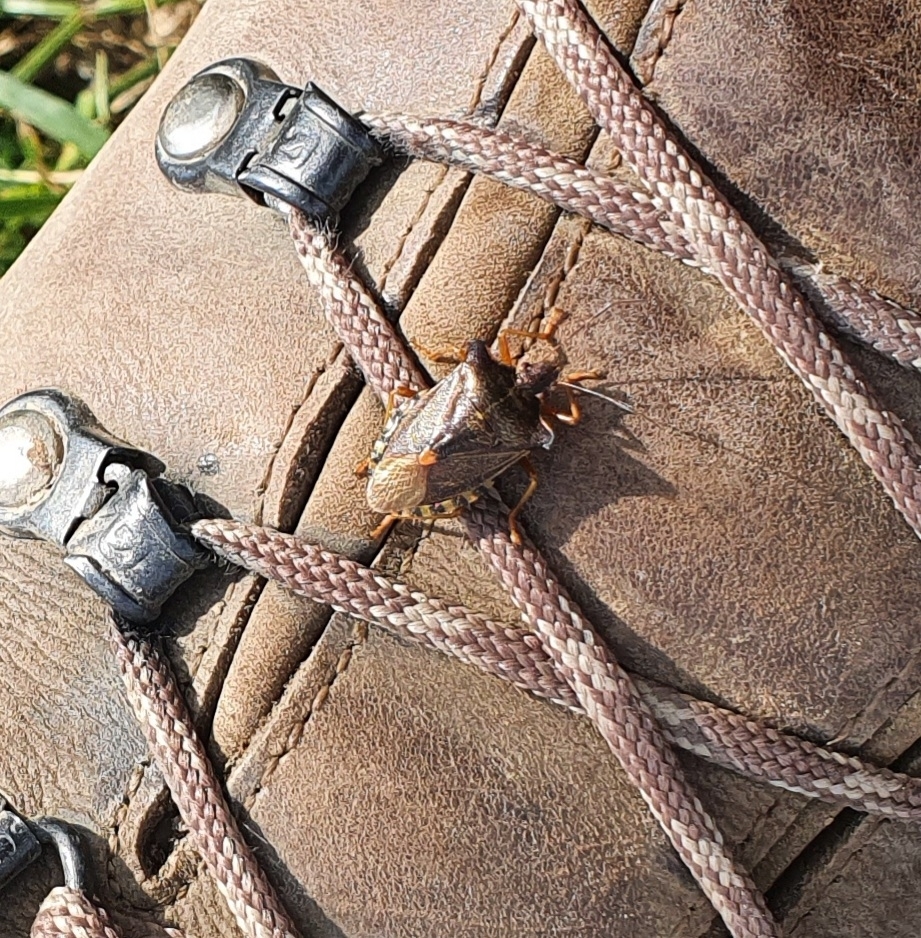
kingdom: Animalia
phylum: Arthropoda
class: Insecta
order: Hemiptera
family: Pentatomidae
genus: Pentatoma
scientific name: Pentatoma rufipes
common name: Forest bug
